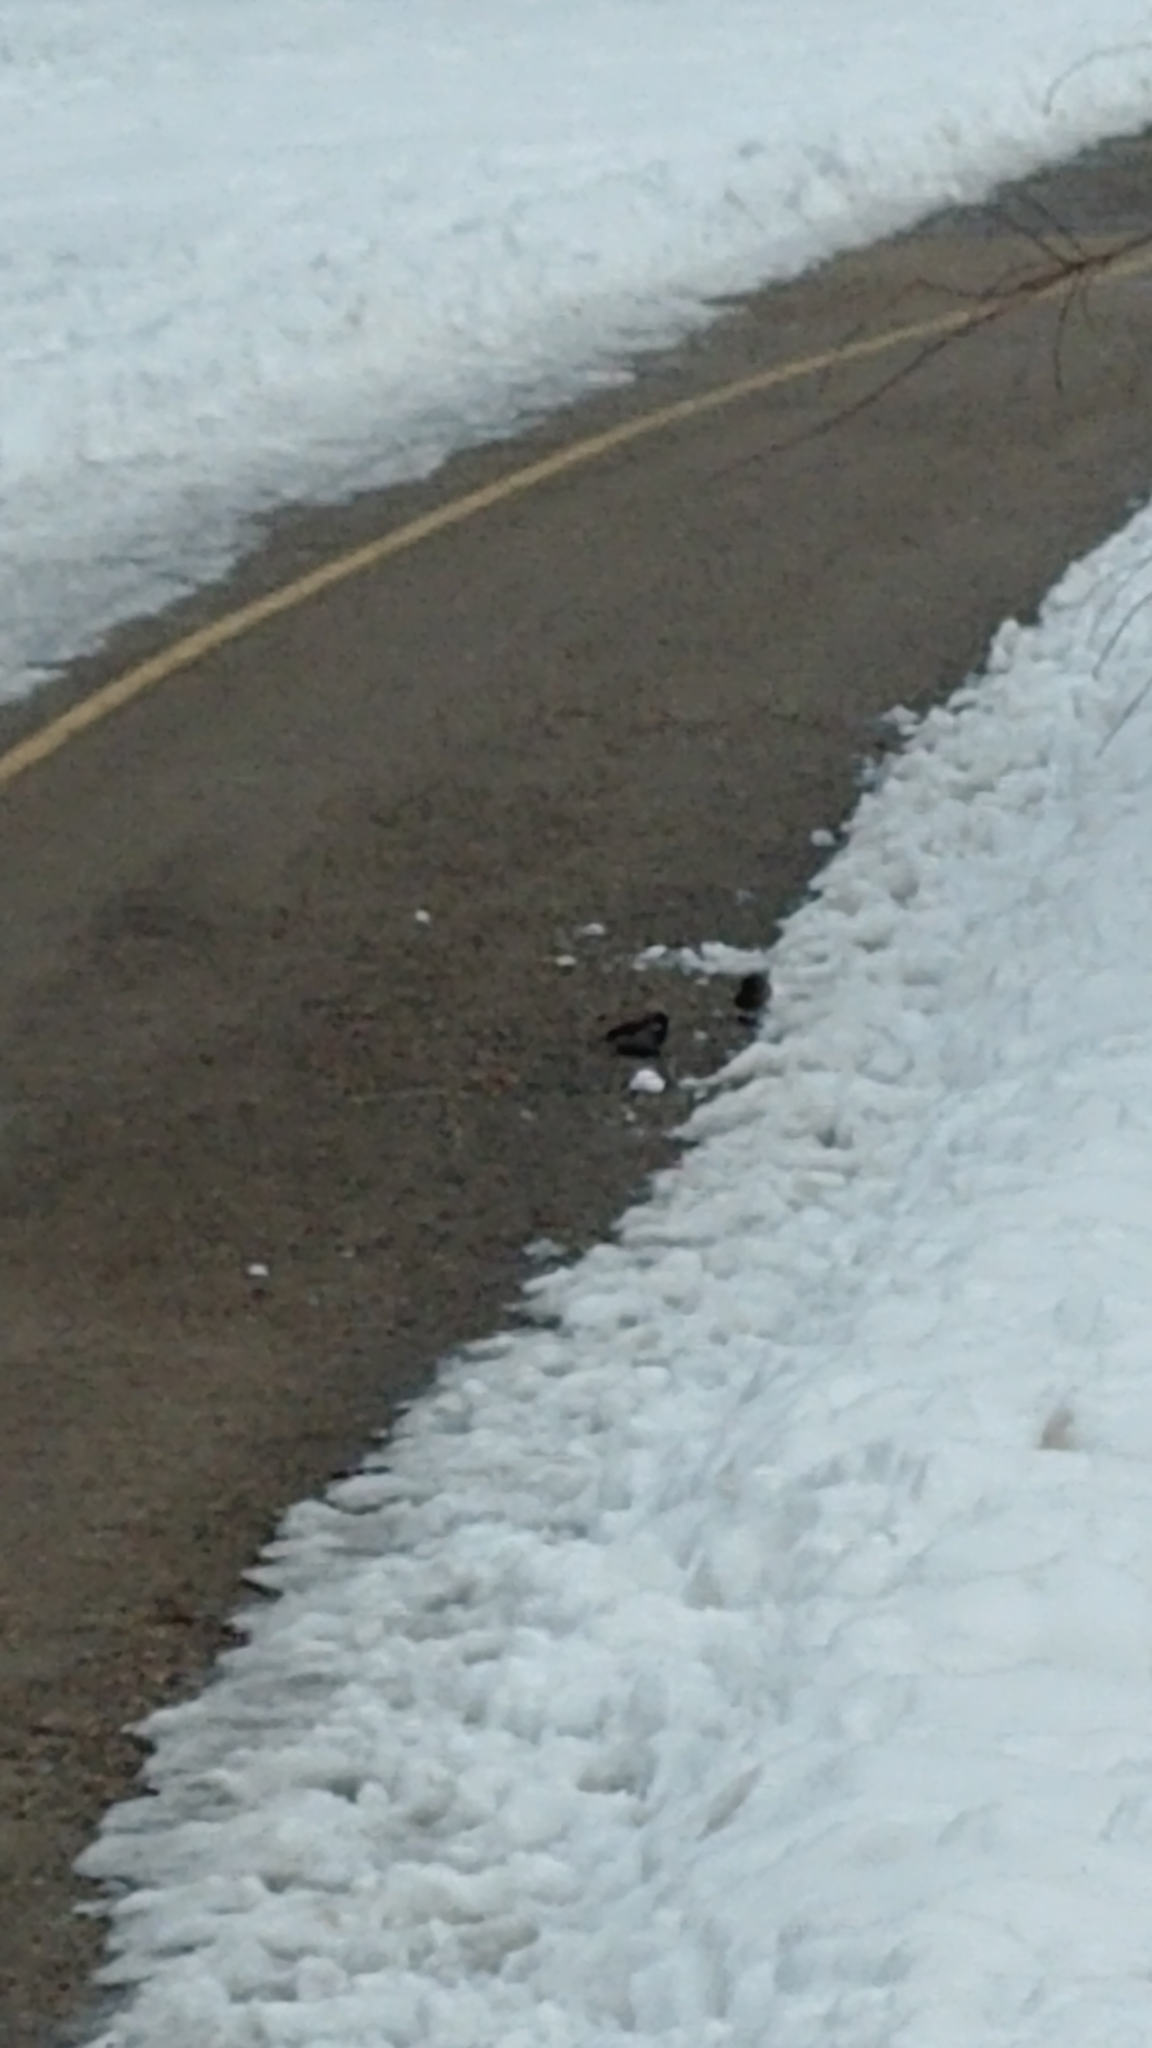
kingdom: Animalia
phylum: Chordata
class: Aves
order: Passeriformes
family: Passeridae
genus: Passer
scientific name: Passer domesticus
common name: House sparrow
